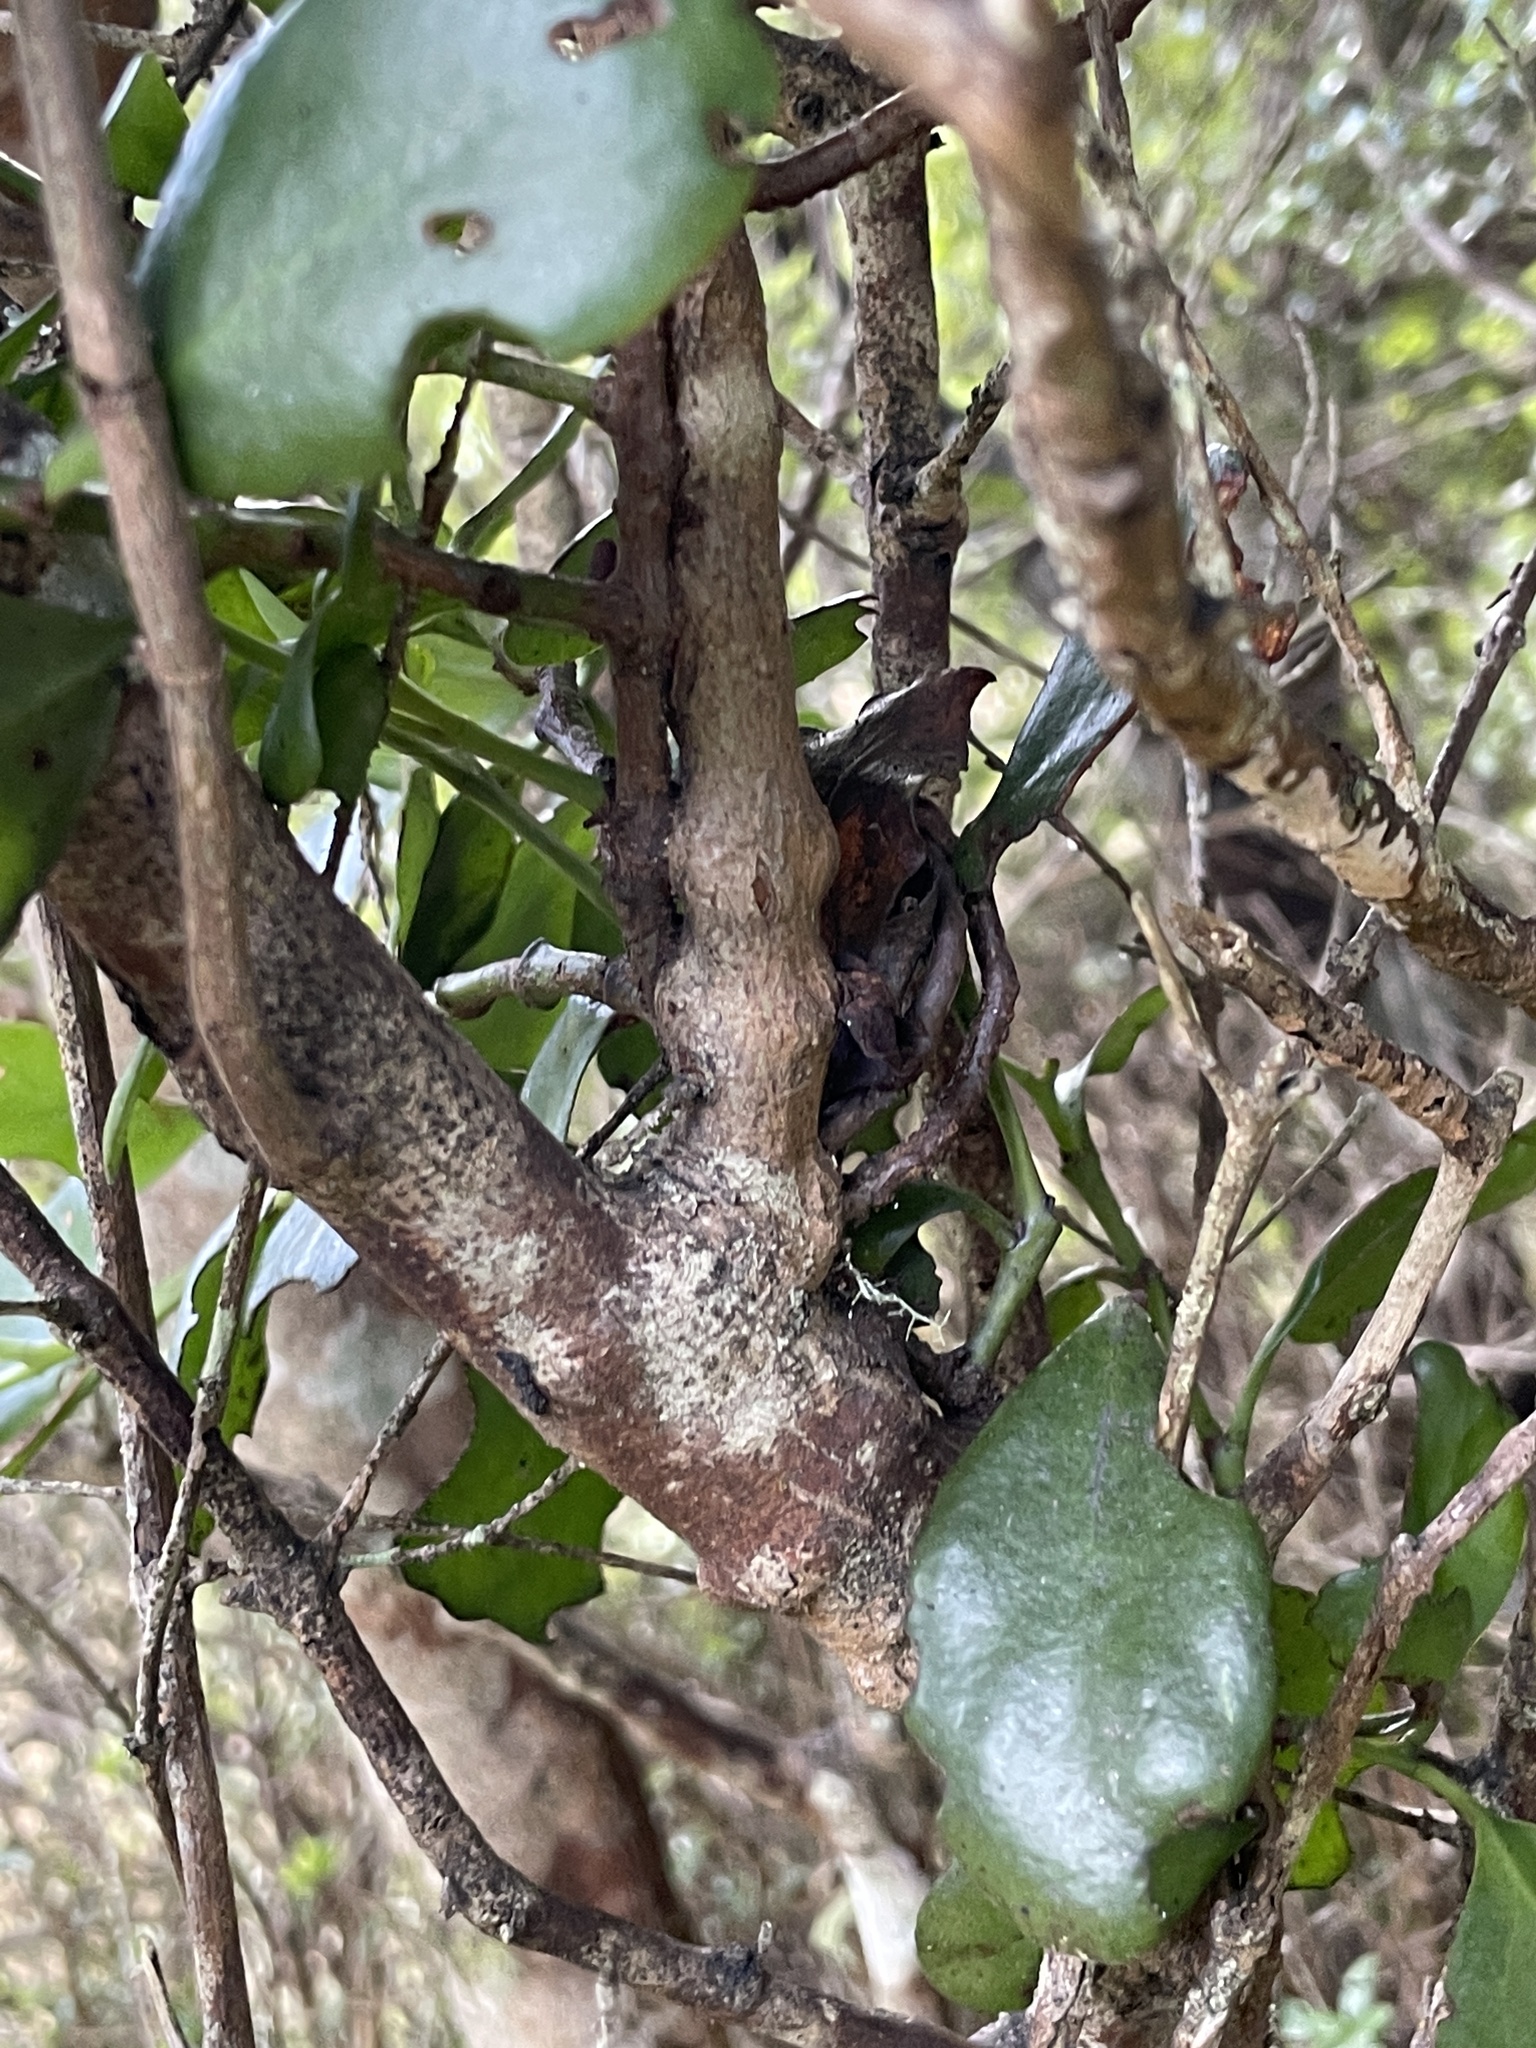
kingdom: Plantae
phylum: Tracheophyta
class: Magnoliopsida
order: Santalales
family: Loranthaceae
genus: Ileostylus
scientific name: Ileostylus micranthus
